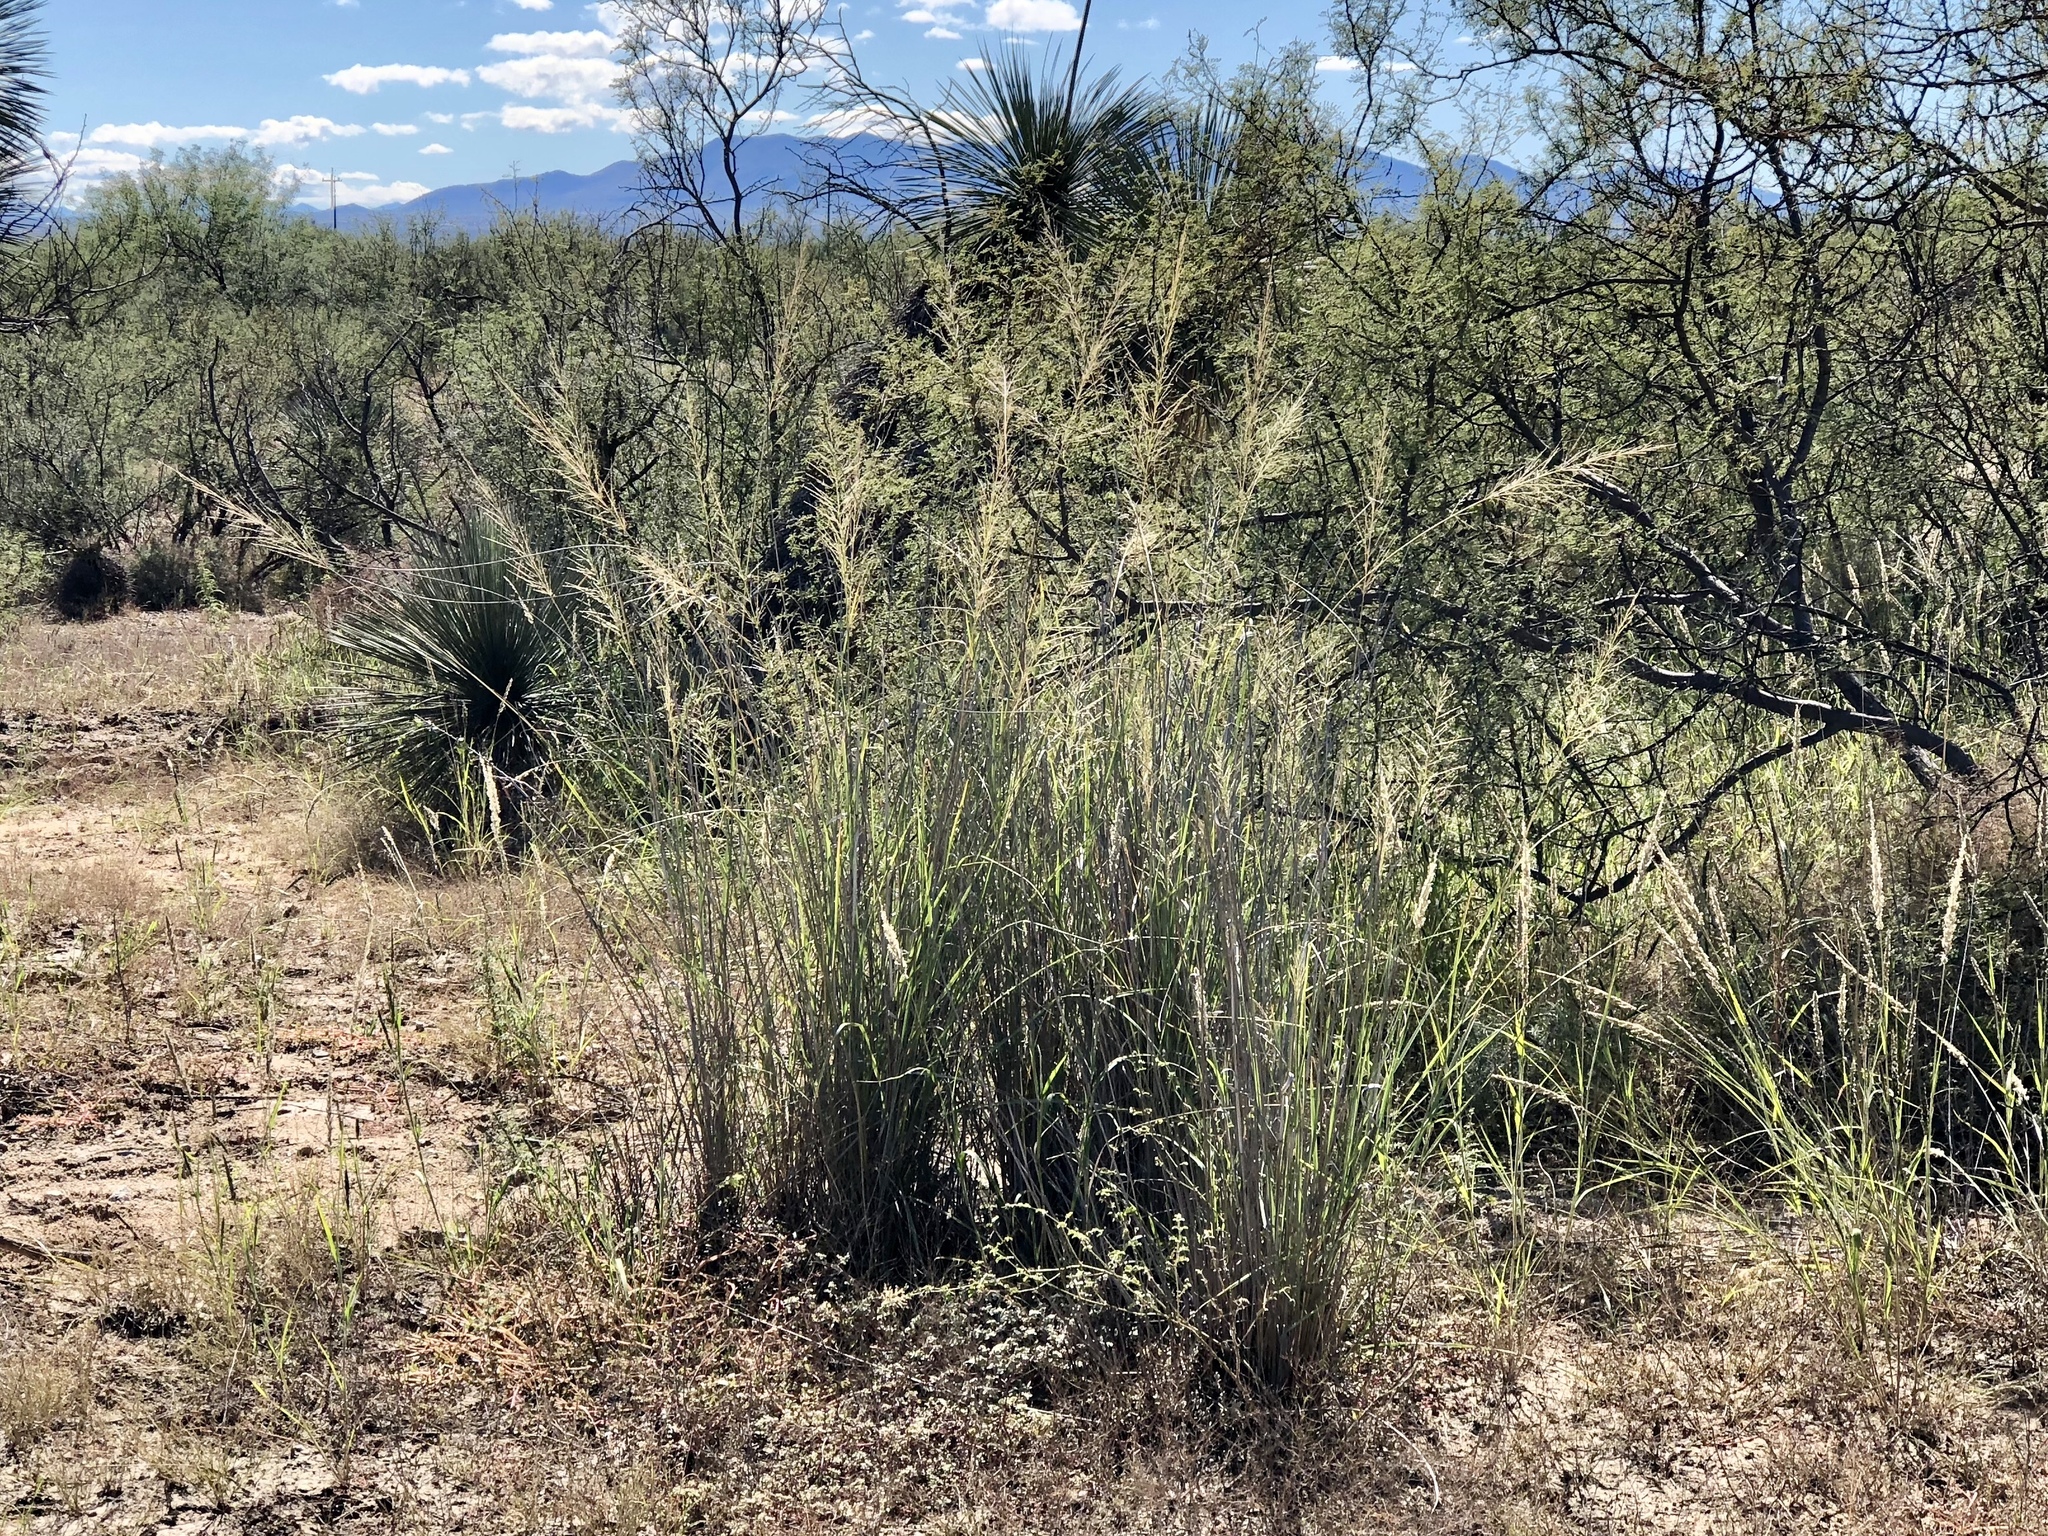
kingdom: Plantae
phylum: Tracheophyta
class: Liliopsida
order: Poales
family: Poaceae
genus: Sporobolus
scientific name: Sporobolus wrightii
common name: Big alkali sacaton
